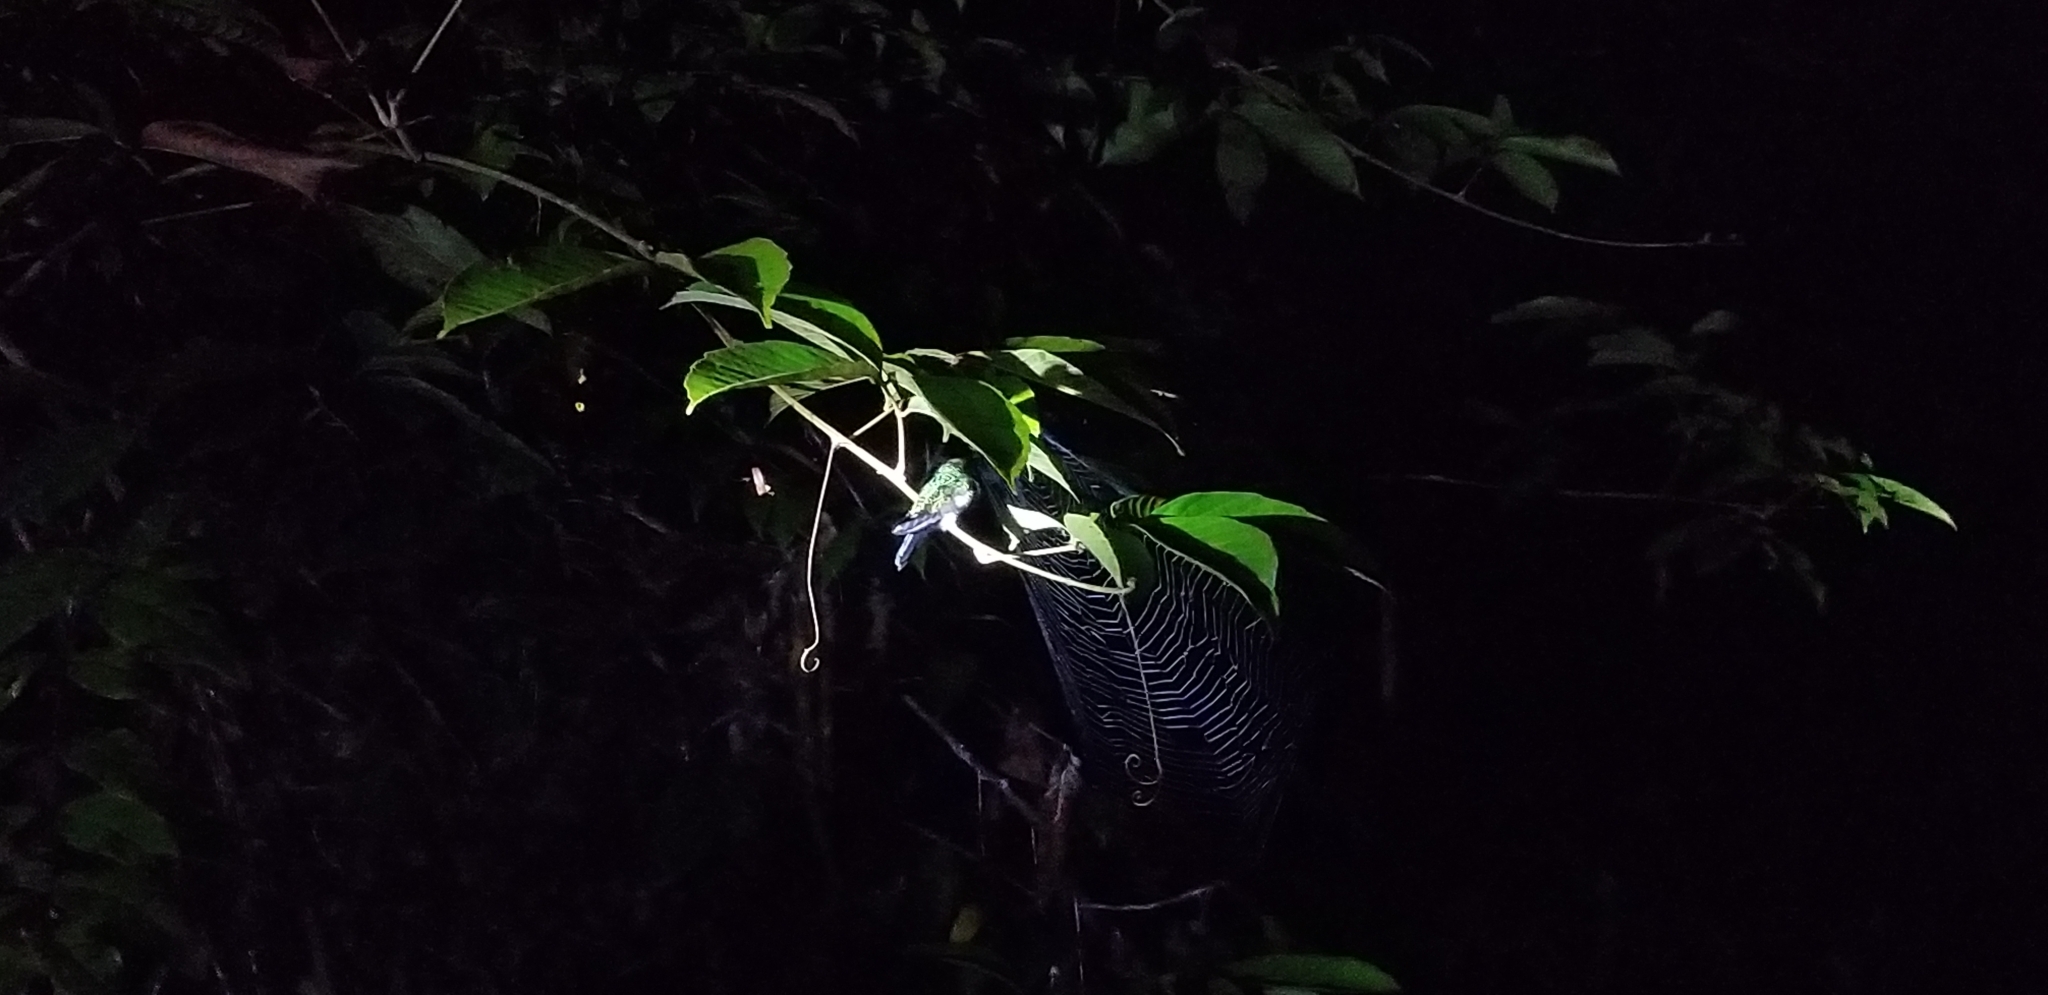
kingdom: Animalia
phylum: Chordata
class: Aves
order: Apodiformes
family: Trochilidae
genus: Thalurania
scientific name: Thalurania furcata
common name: Fork-tailed woodnymph
